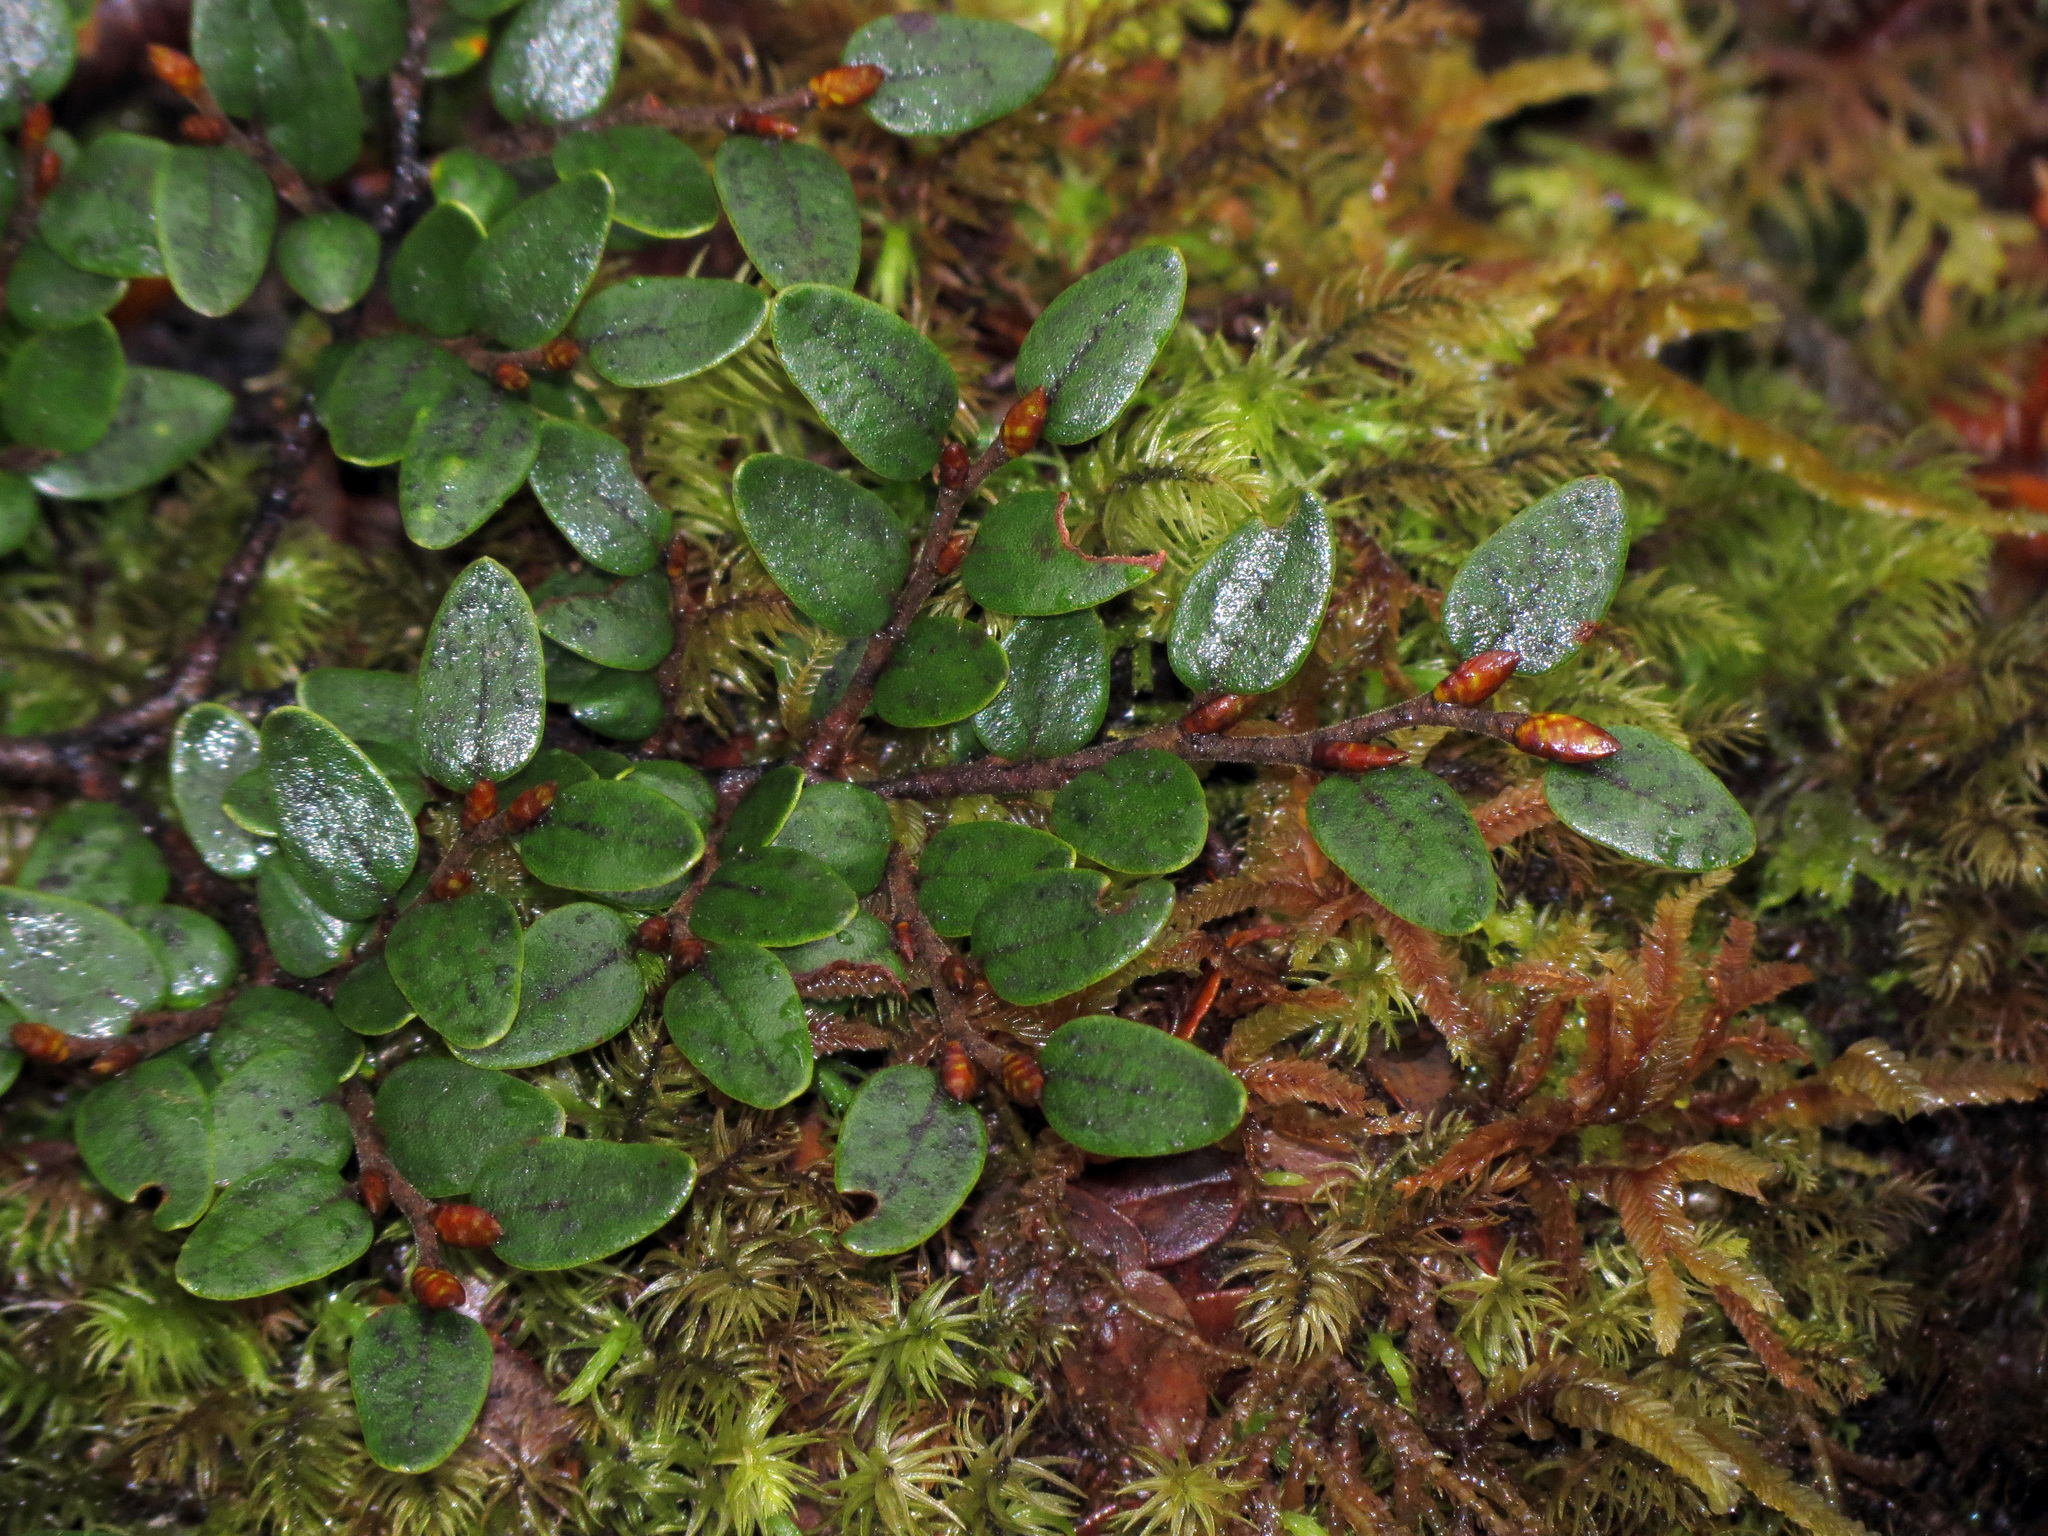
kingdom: Plantae
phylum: Tracheophyta
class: Magnoliopsida
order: Fagales
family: Nothofagaceae
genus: Nothofagus
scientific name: Nothofagus cliffortioides
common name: Mountain beech
